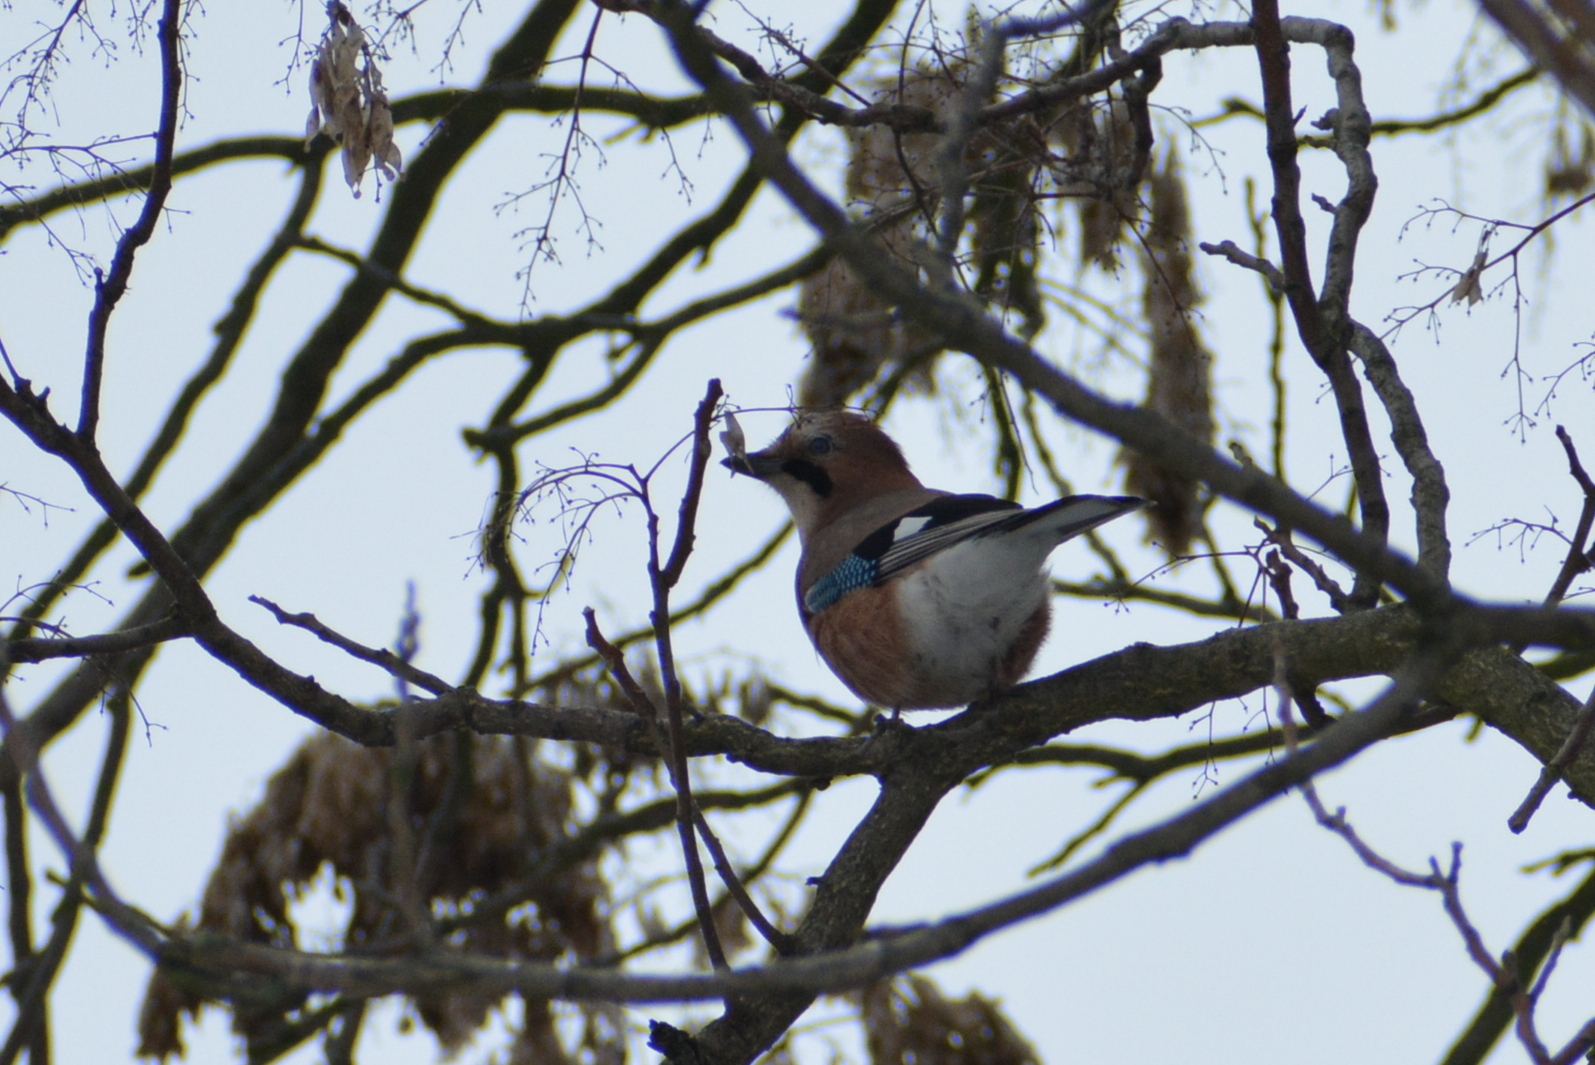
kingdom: Animalia
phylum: Chordata
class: Aves
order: Passeriformes
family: Corvidae
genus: Garrulus
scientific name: Garrulus glandarius
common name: Eurasian jay
